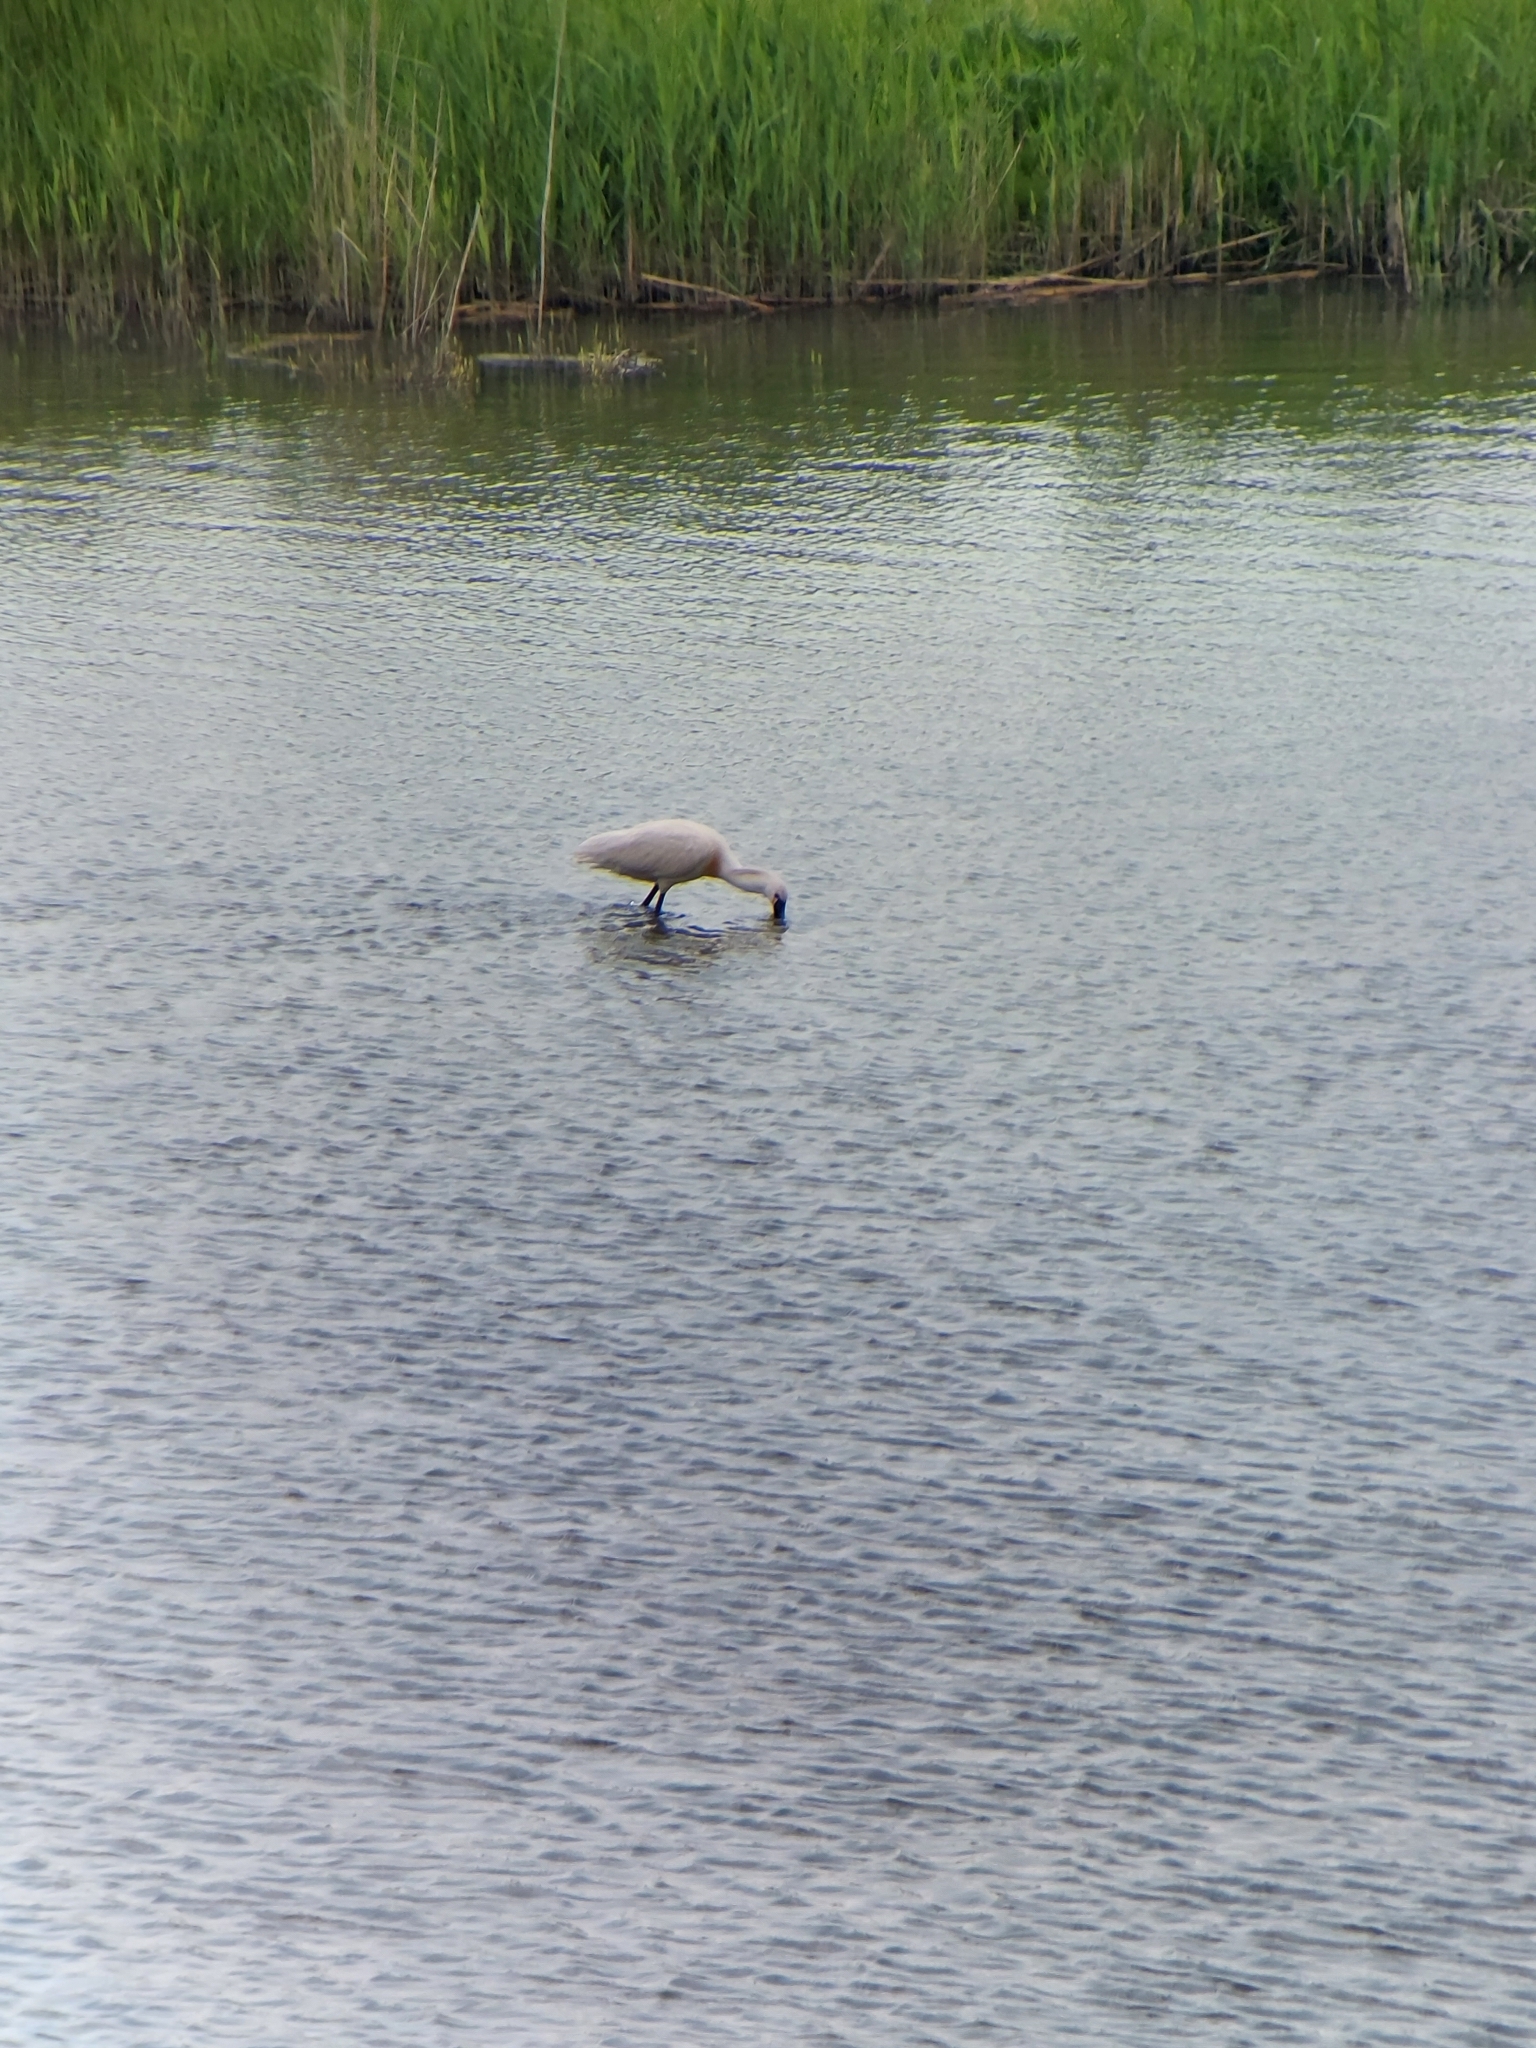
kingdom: Animalia
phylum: Chordata
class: Aves
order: Pelecaniformes
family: Threskiornithidae
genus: Platalea
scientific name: Platalea leucorodia
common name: Eurasian spoonbill
